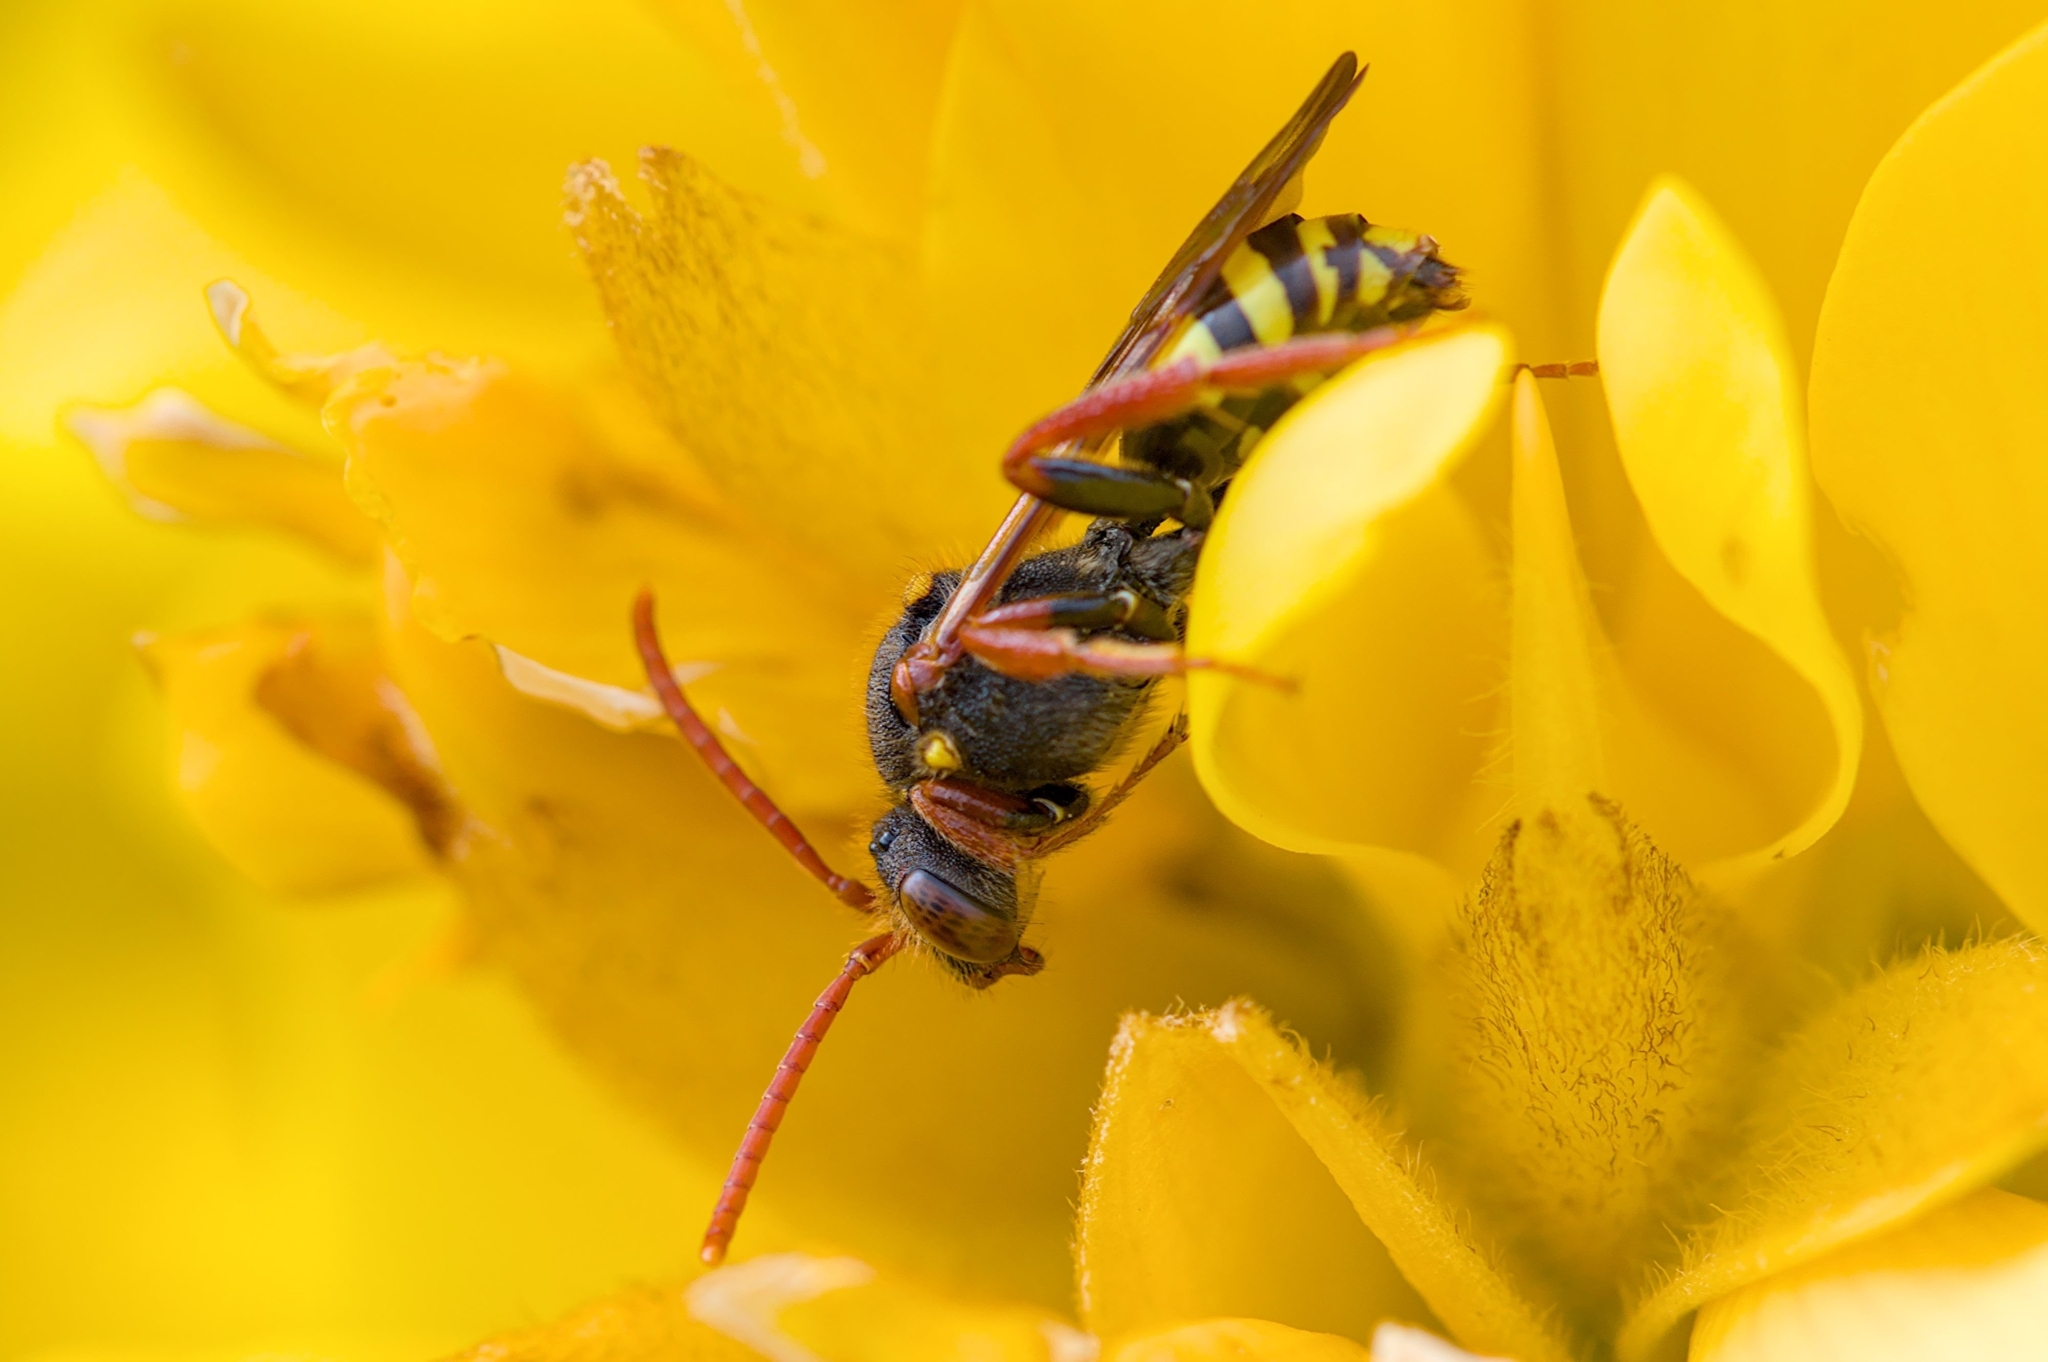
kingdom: Animalia
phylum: Arthropoda
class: Insecta
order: Hymenoptera
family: Apidae
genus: Nomada
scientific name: Nomada marshamella
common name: Marsham's nomad bee
